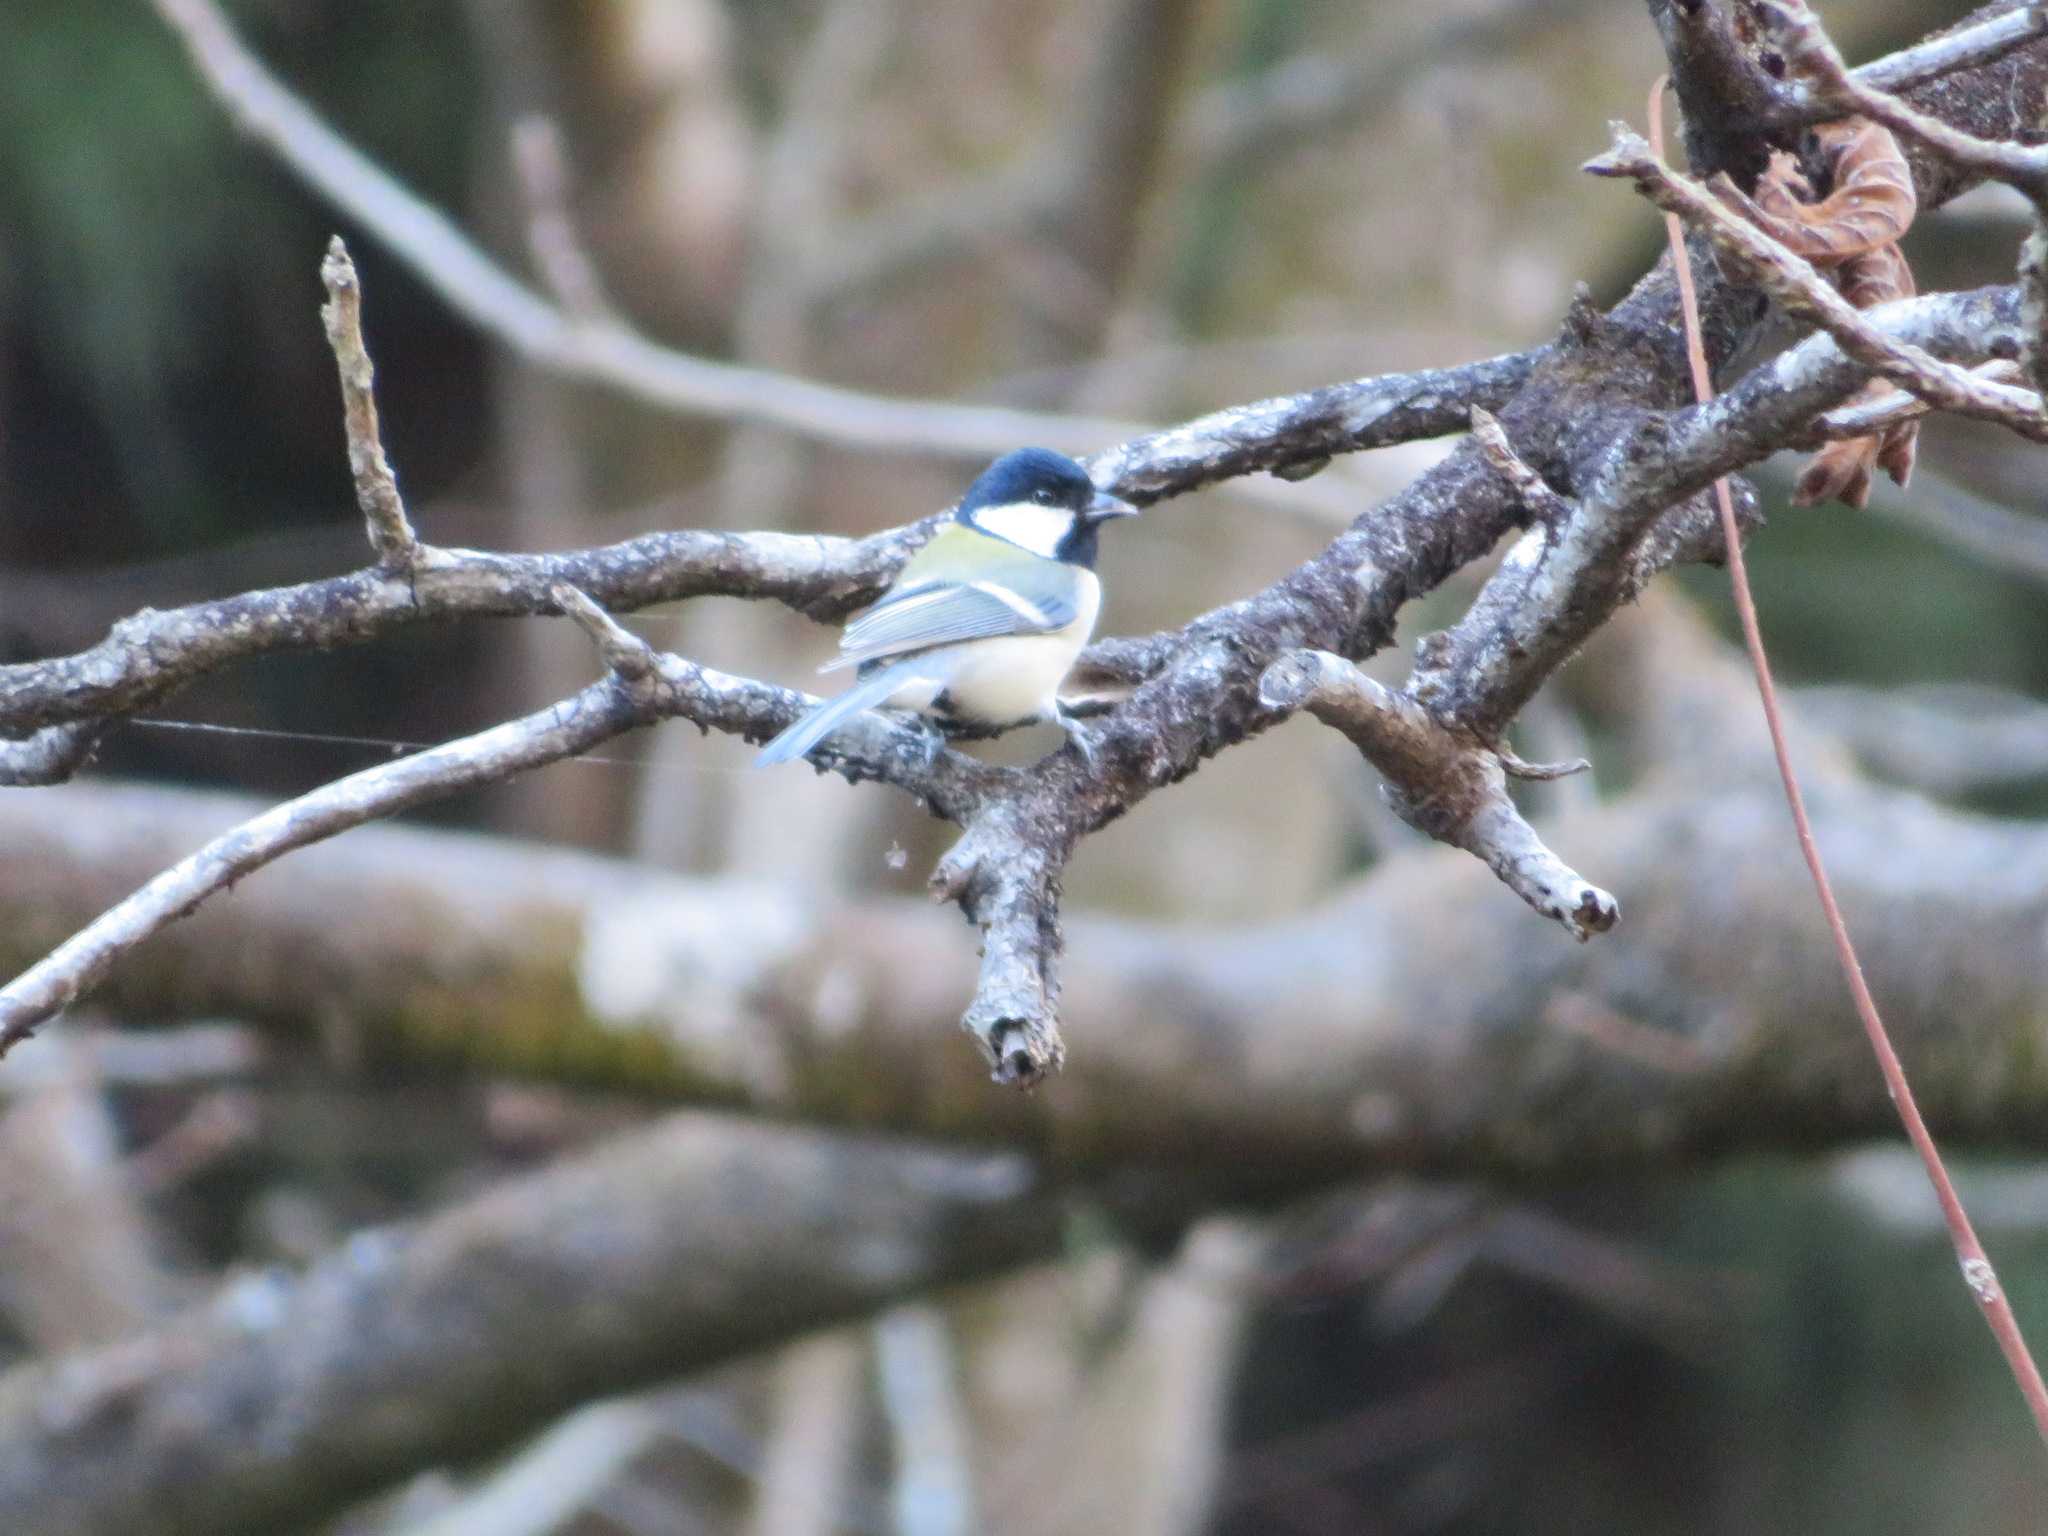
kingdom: Animalia
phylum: Chordata
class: Aves
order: Passeriformes
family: Paridae
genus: Parus
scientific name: Parus minor
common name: Japanese tit
